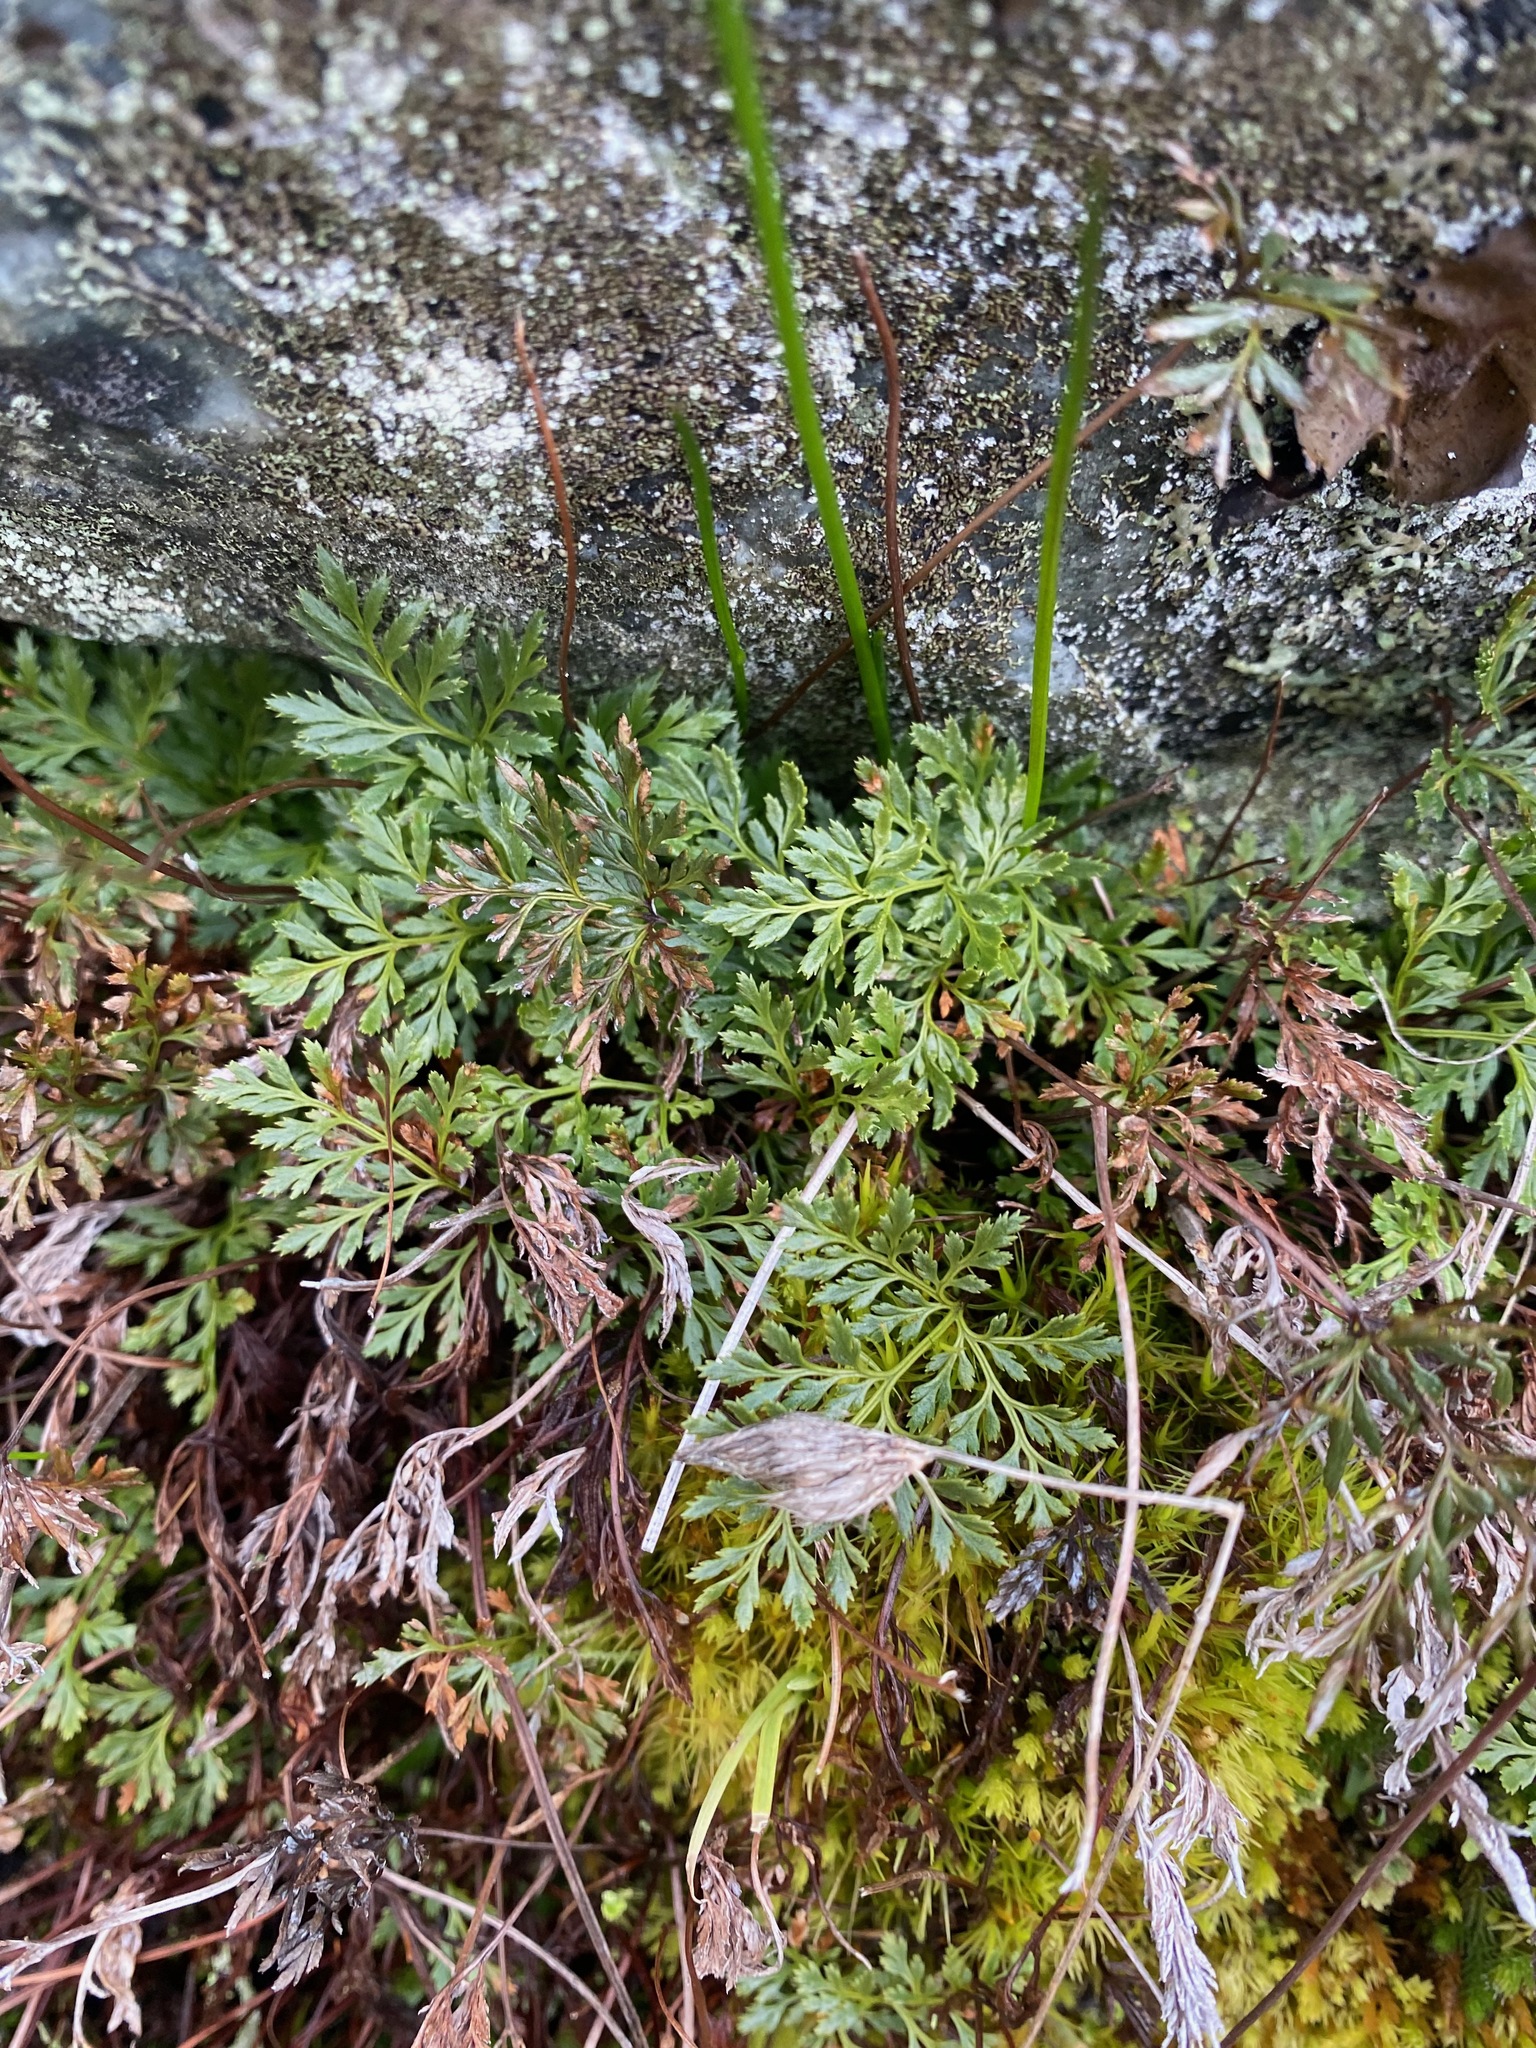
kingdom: Plantae
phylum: Tracheophyta
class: Polypodiopsida
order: Polypodiales
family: Pteridaceae
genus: Aspidotis
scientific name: Aspidotis densa
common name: Indian's dream
